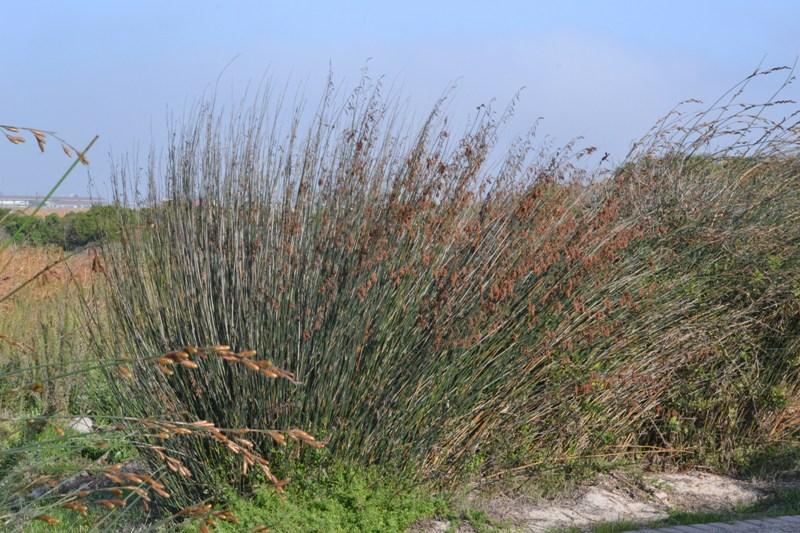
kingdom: Plantae
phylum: Tracheophyta
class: Liliopsida
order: Poales
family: Restionaceae
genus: Thamnochortus
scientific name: Thamnochortus spicigerus
